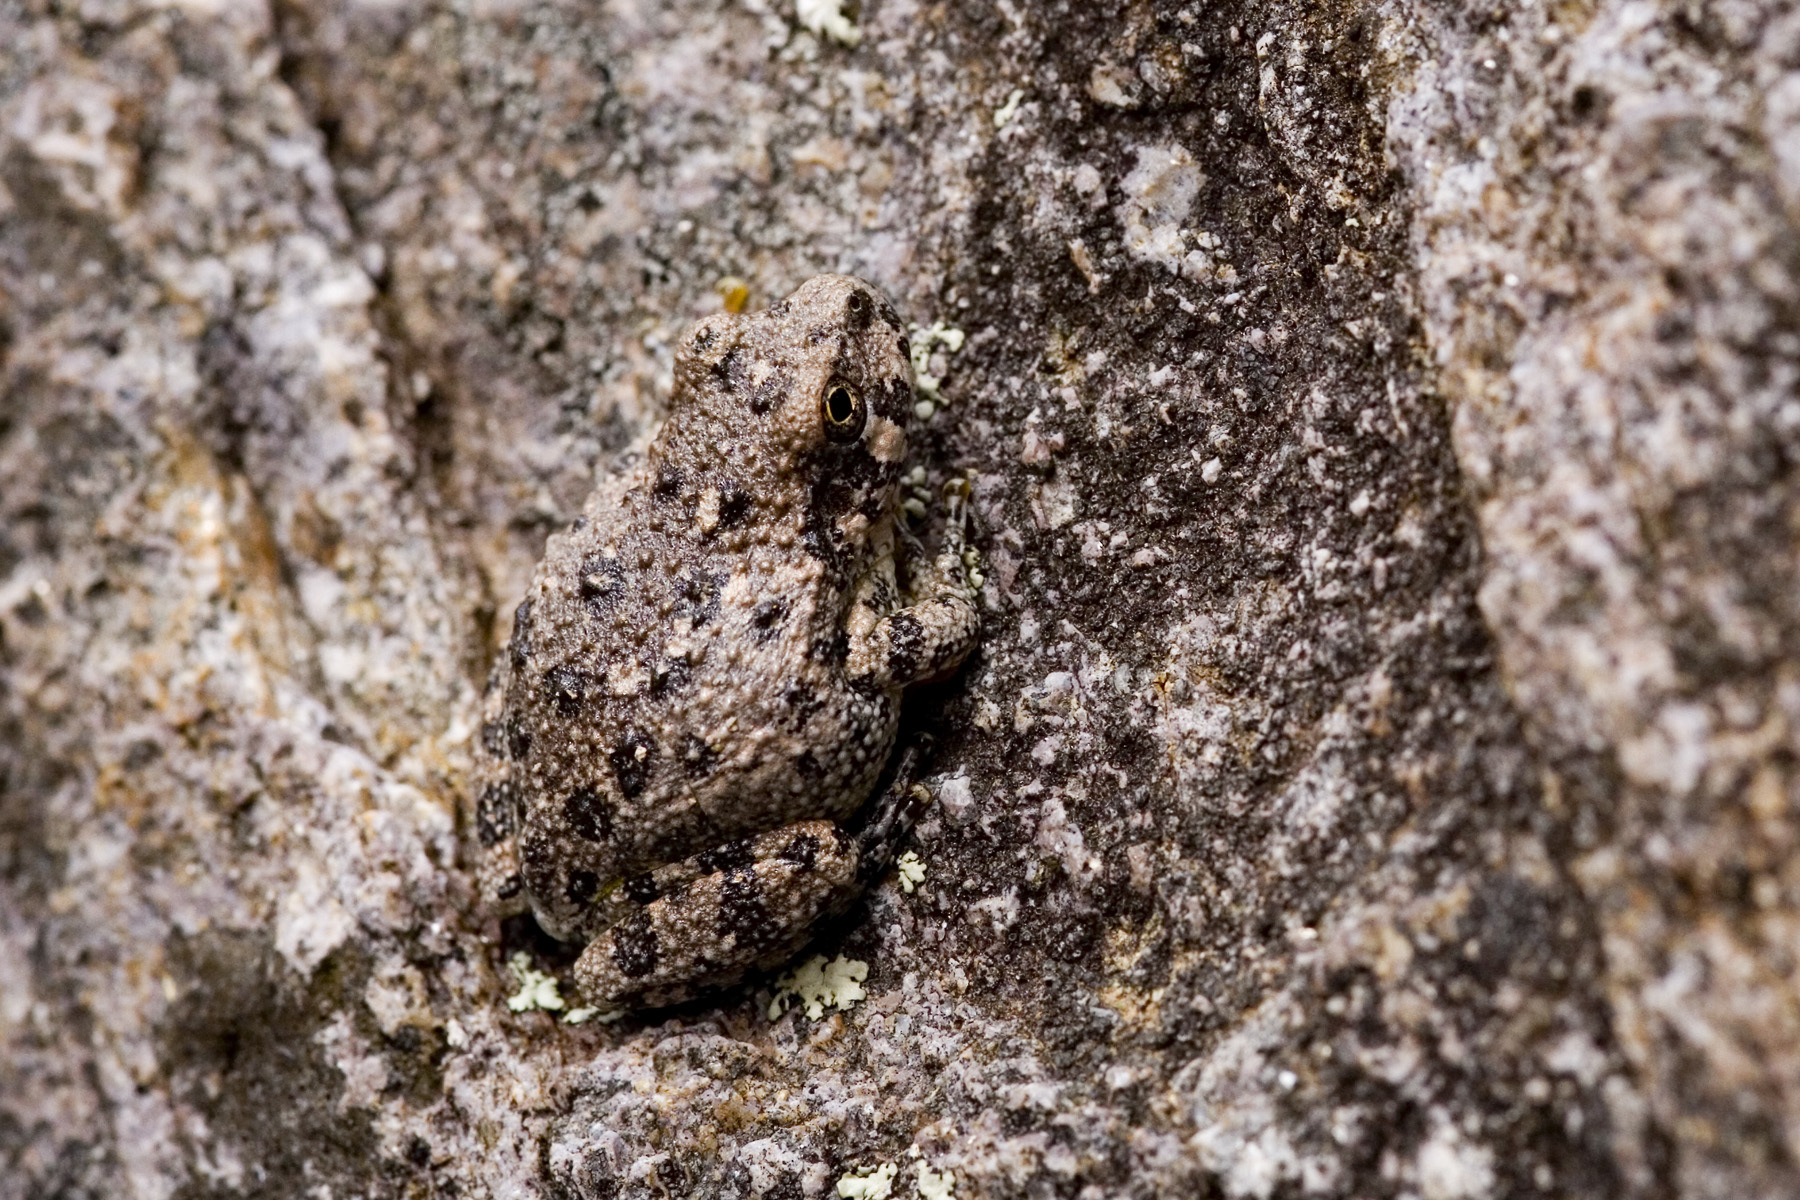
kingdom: Animalia
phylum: Chordata
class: Amphibia
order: Anura
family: Hylidae
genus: Dryophytes
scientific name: Dryophytes arenicolor
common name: Canyon treefrog
